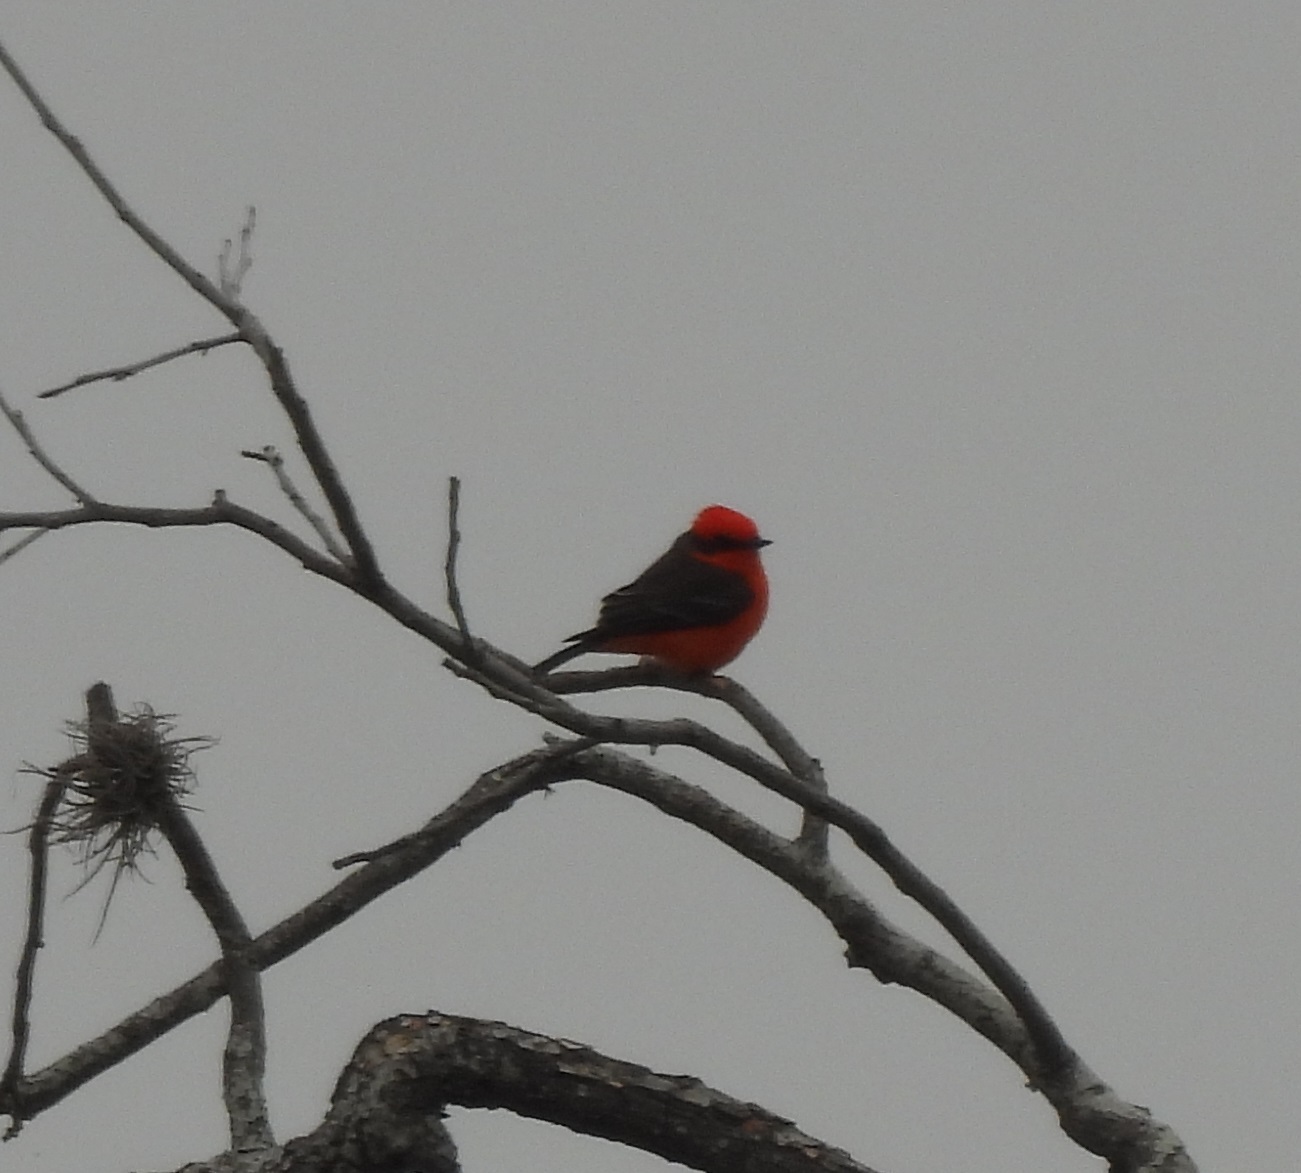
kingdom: Animalia
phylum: Chordata
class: Aves
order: Passeriformes
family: Tyrannidae
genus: Pyrocephalus
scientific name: Pyrocephalus rubinus
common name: Vermilion flycatcher
